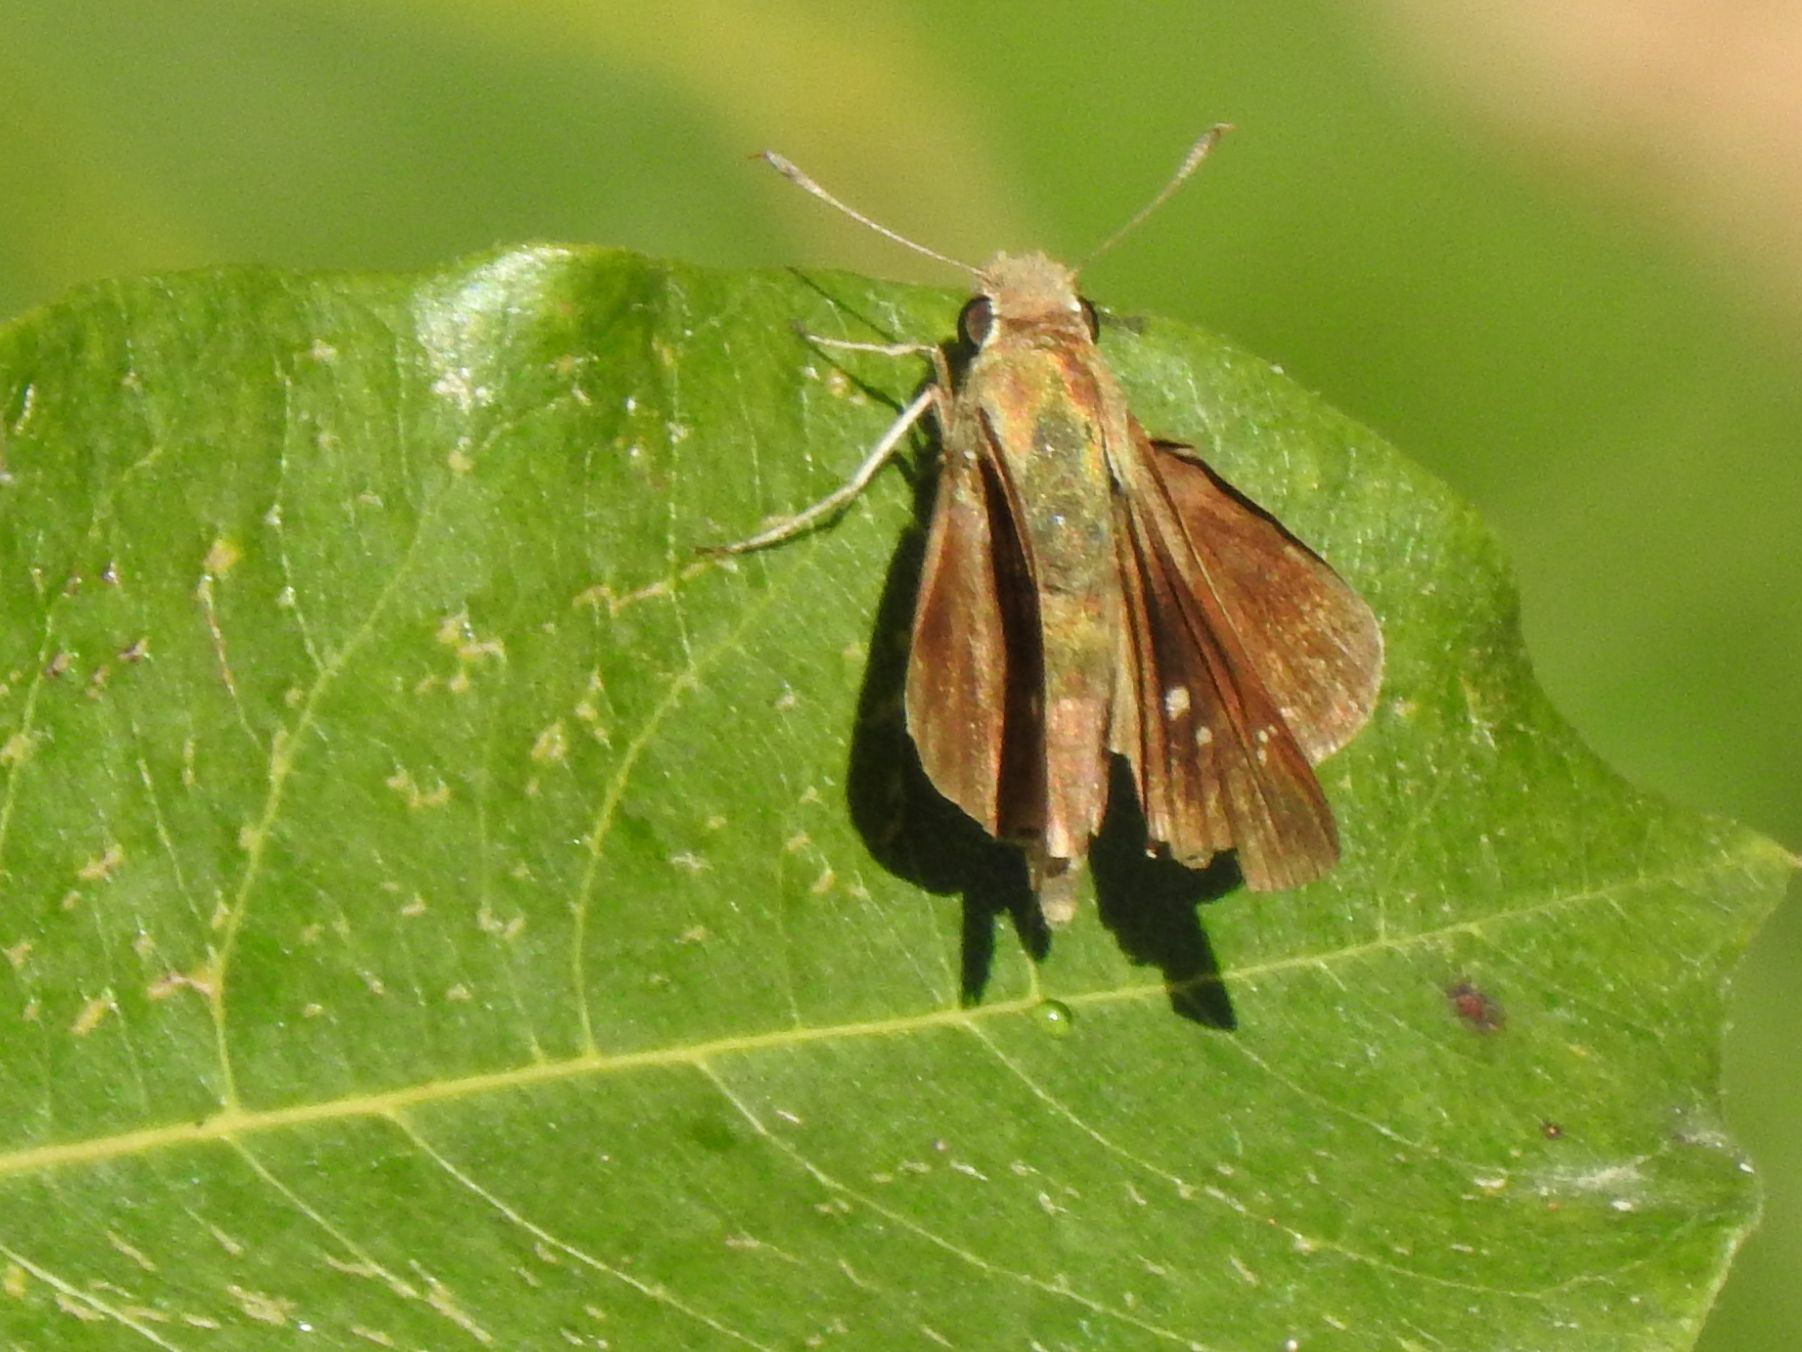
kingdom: Animalia
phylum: Arthropoda
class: Insecta
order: Lepidoptera
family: Hesperiidae
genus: Baoris
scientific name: Baoris fatuellus
